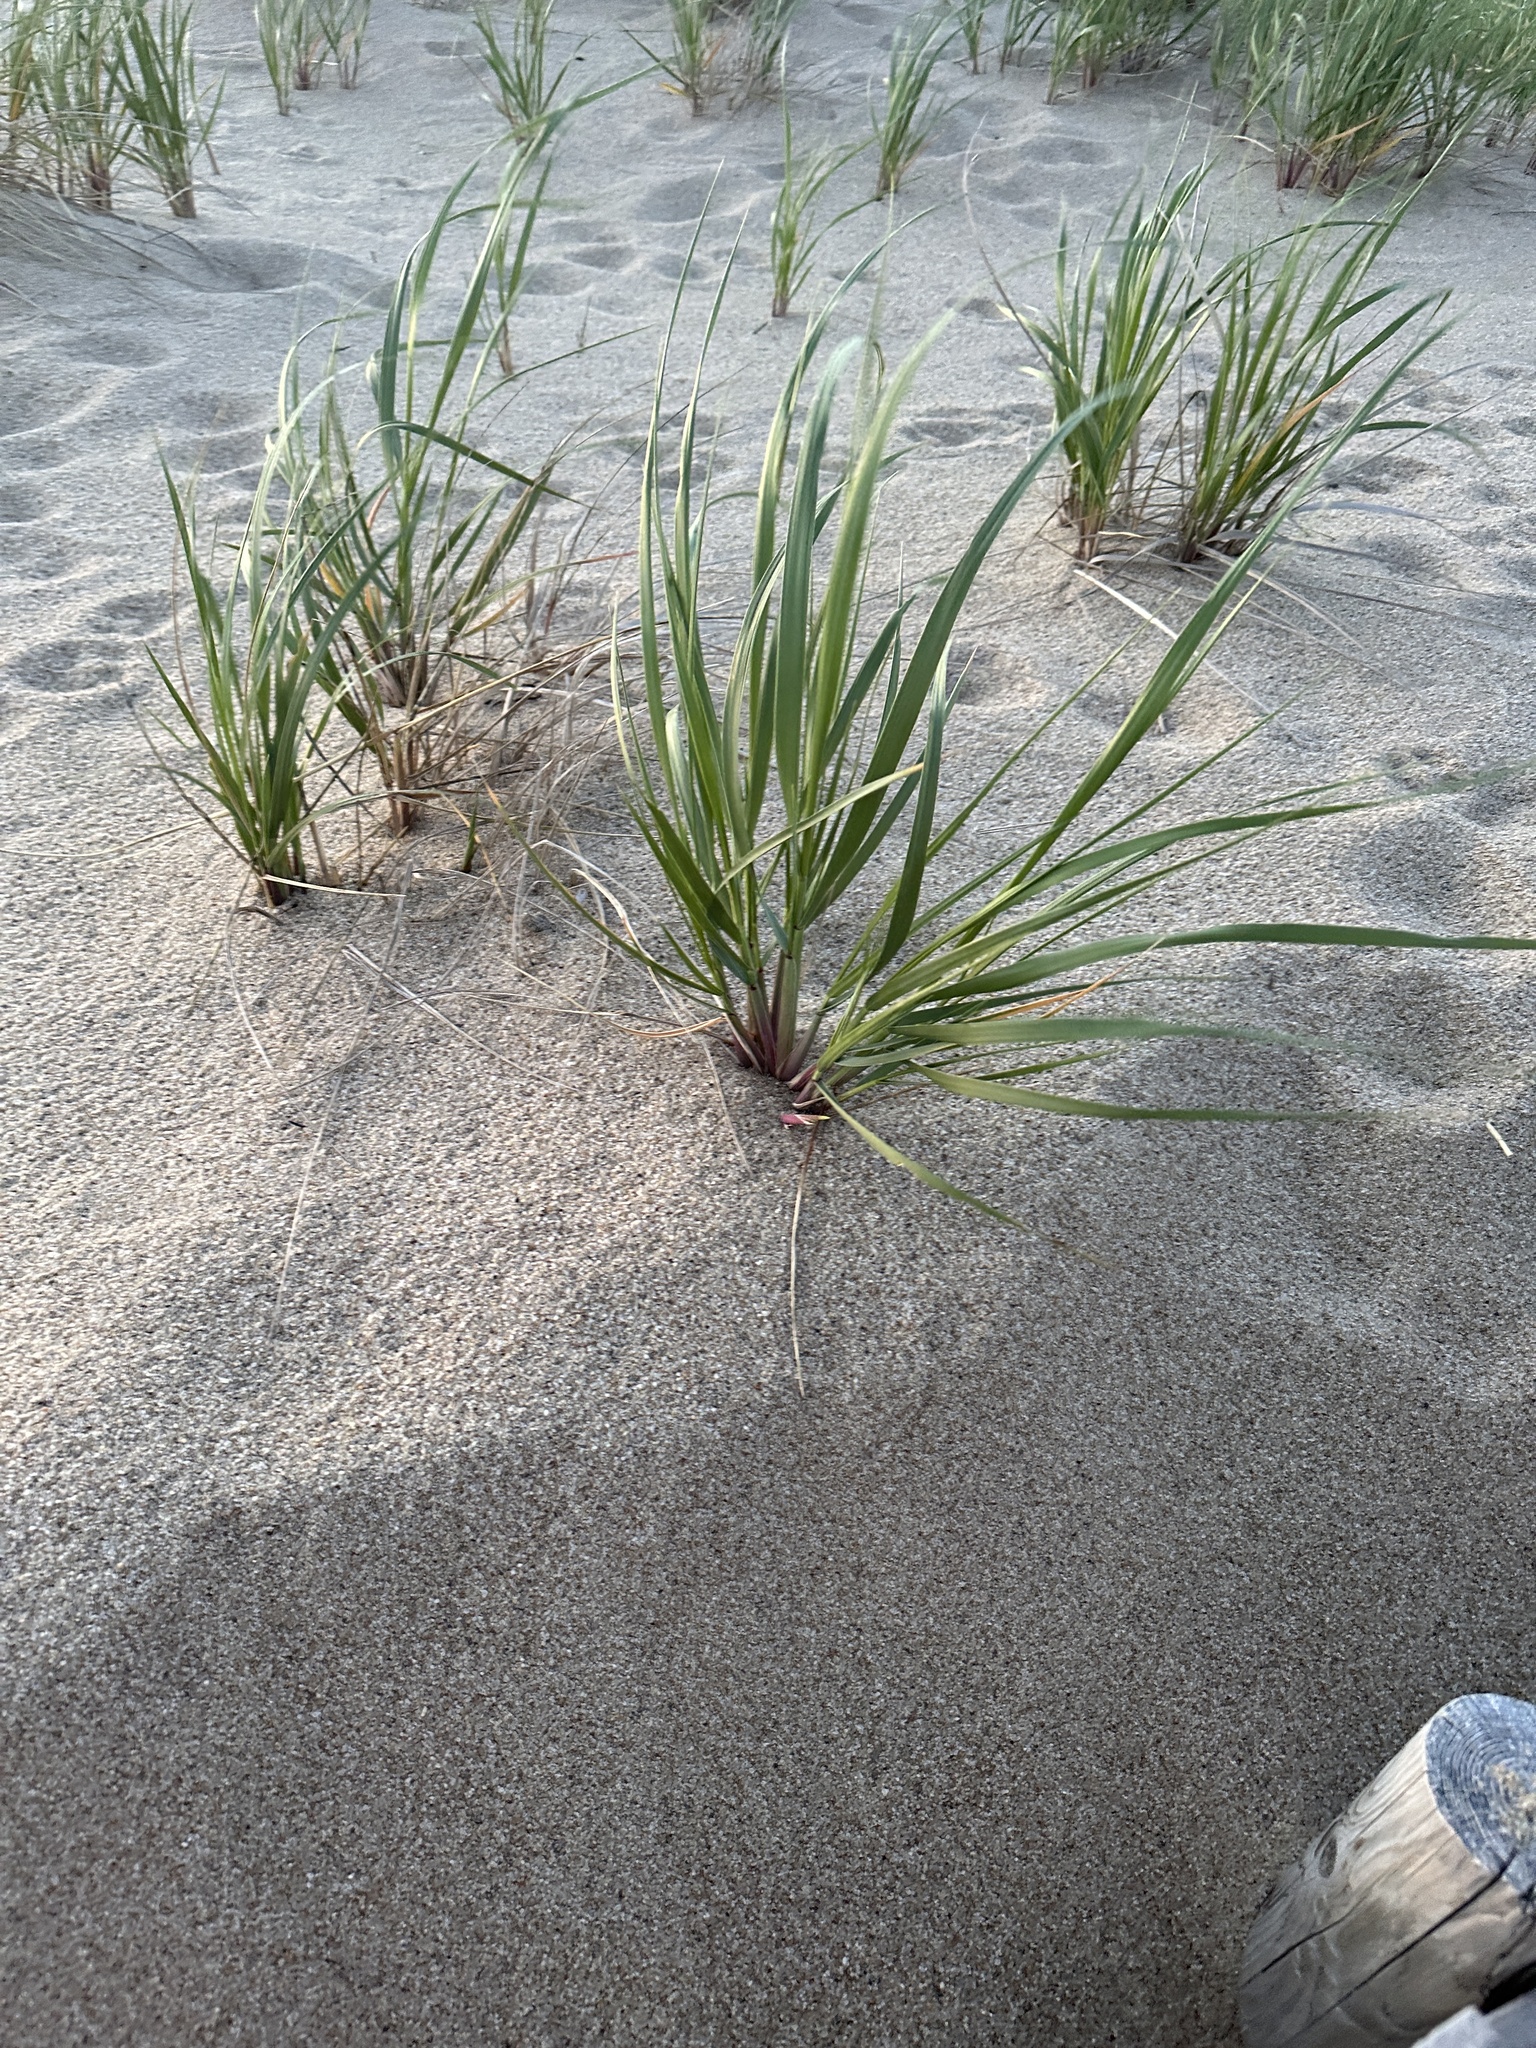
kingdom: Plantae
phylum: Tracheophyta
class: Liliopsida
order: Poales
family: Poaceae
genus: Calamagrostis
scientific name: Calamagrostis breviligulata
